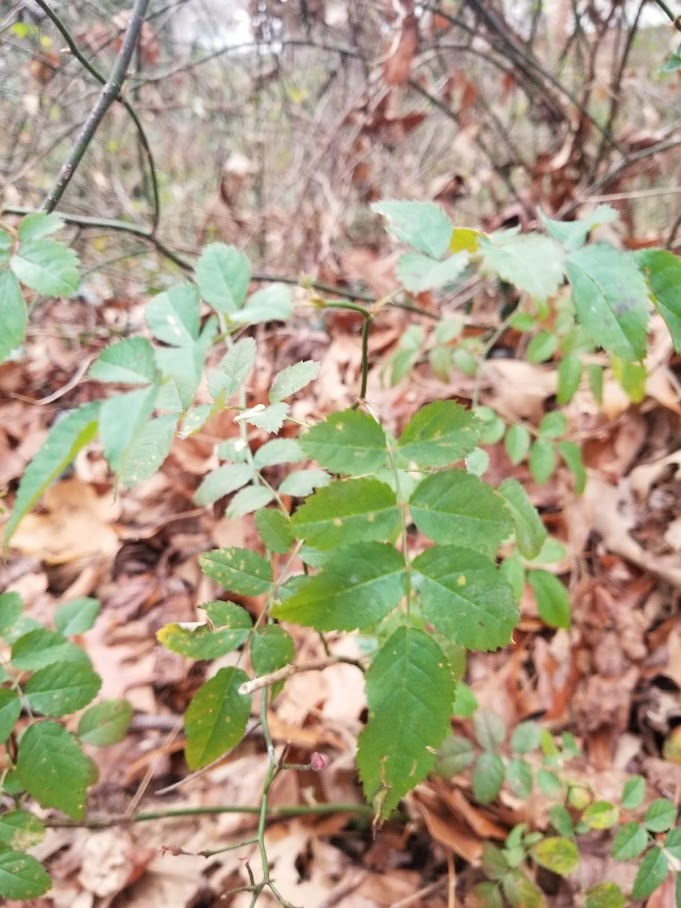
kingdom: Plantae
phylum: Tracheophyta
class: Magnoliopsida
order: Rosales
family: Rosaceae
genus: Rosa
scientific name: Rosa multiflora
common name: Multiflora rose
